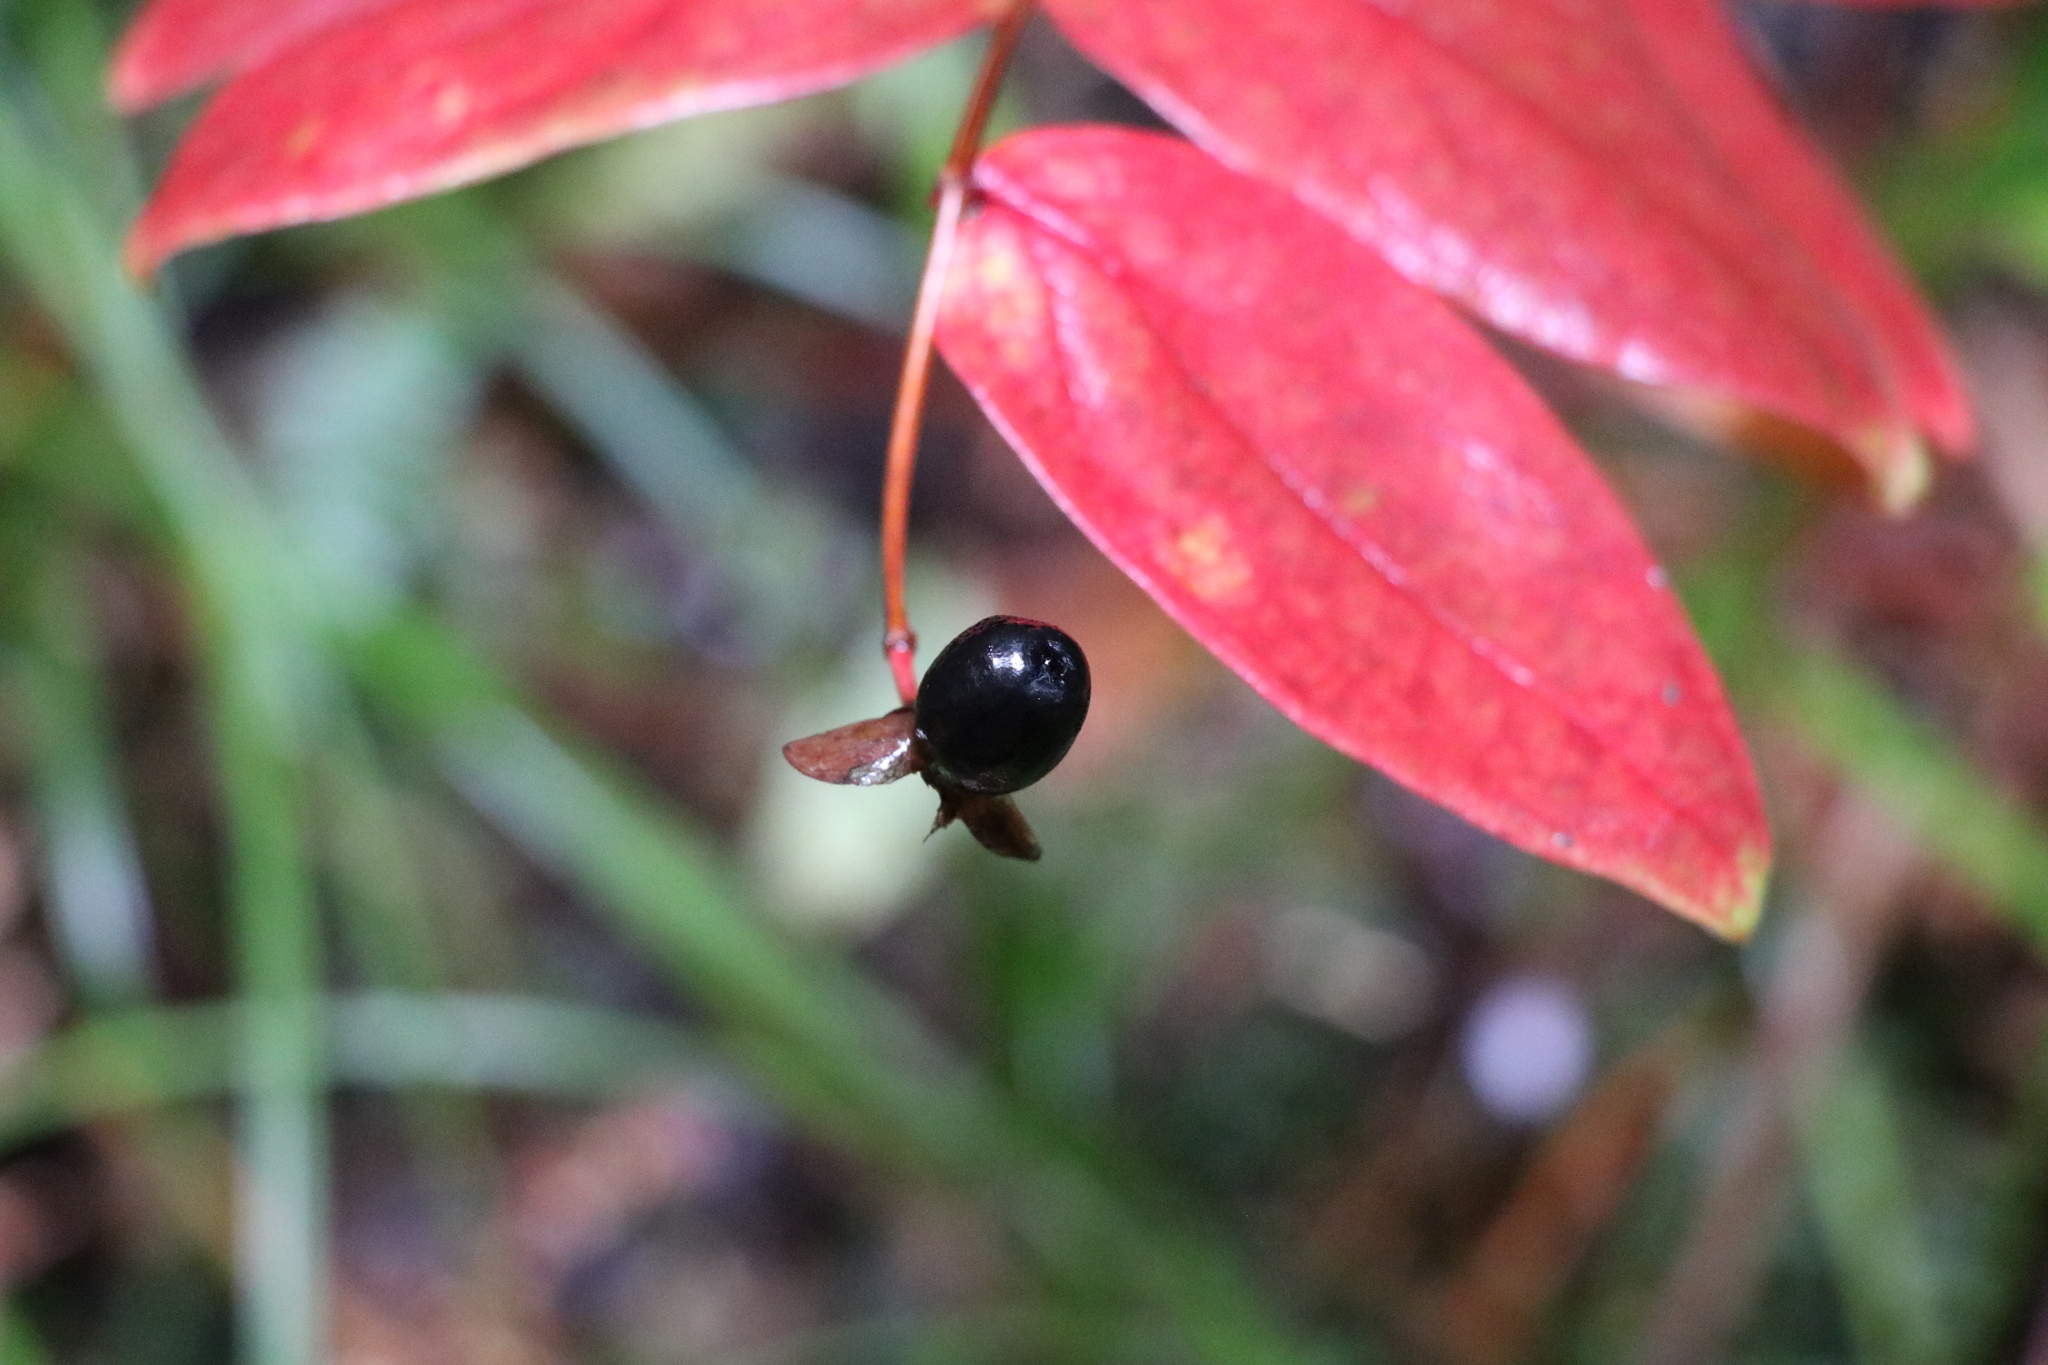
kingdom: Plantae
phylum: Tracheophyta
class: Magnoliopsida
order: Malpighiales
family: Hypericaceae
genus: Hypericum
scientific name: Hypericum androsaemum
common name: Sweet-amber
